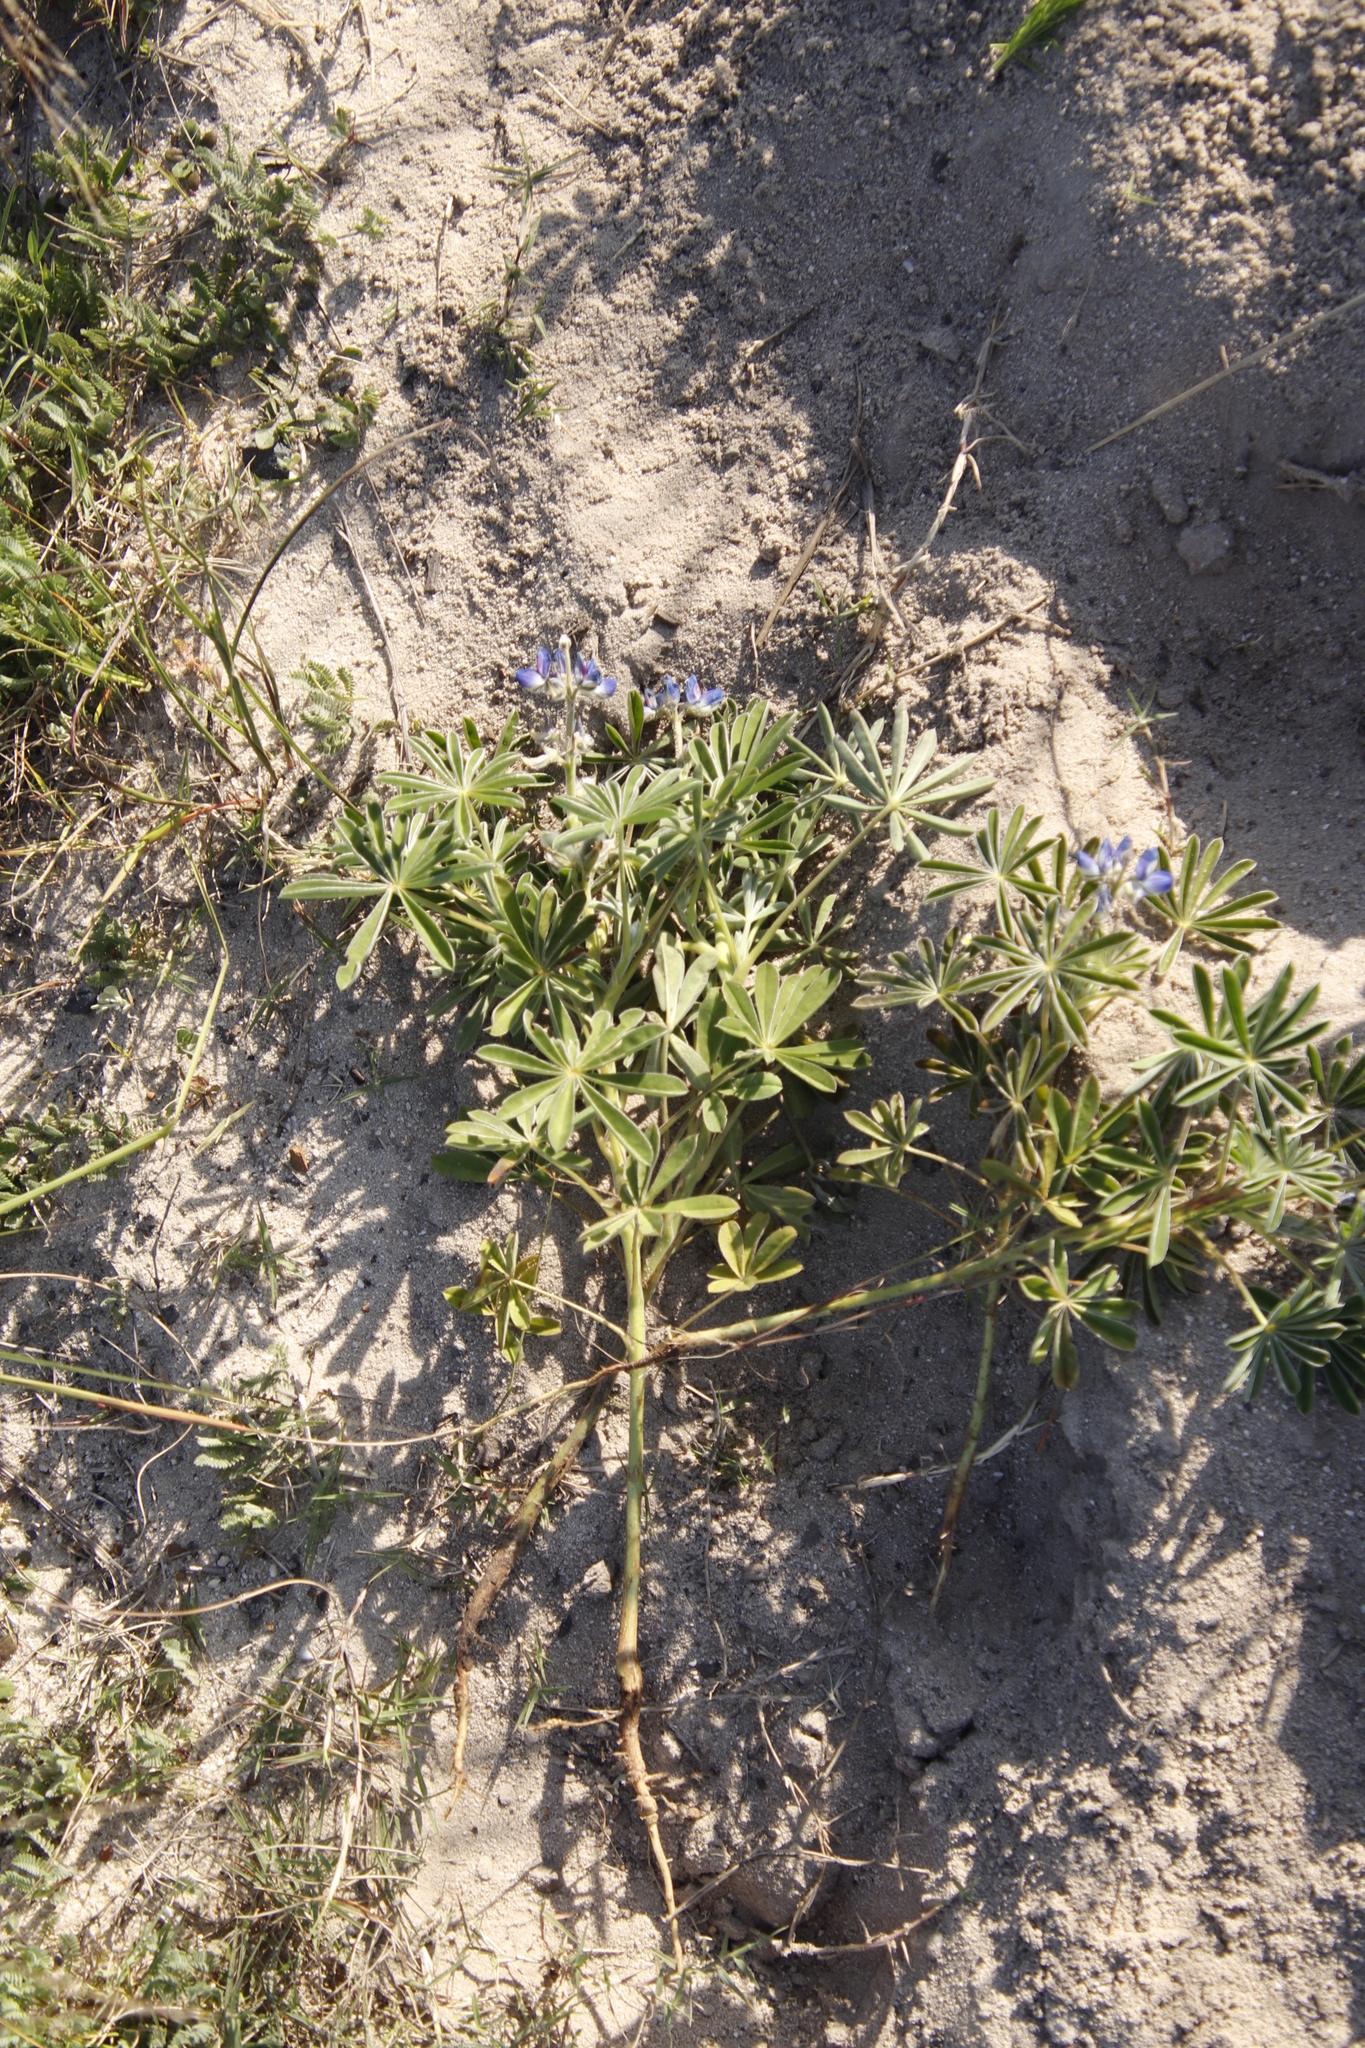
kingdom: Plantae
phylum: Tracheophyta
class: Magnoliopsida
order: Fabales
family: Fabaceae
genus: Lupinus
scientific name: Lupinus cosentinii
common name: Hairy blue lupin
